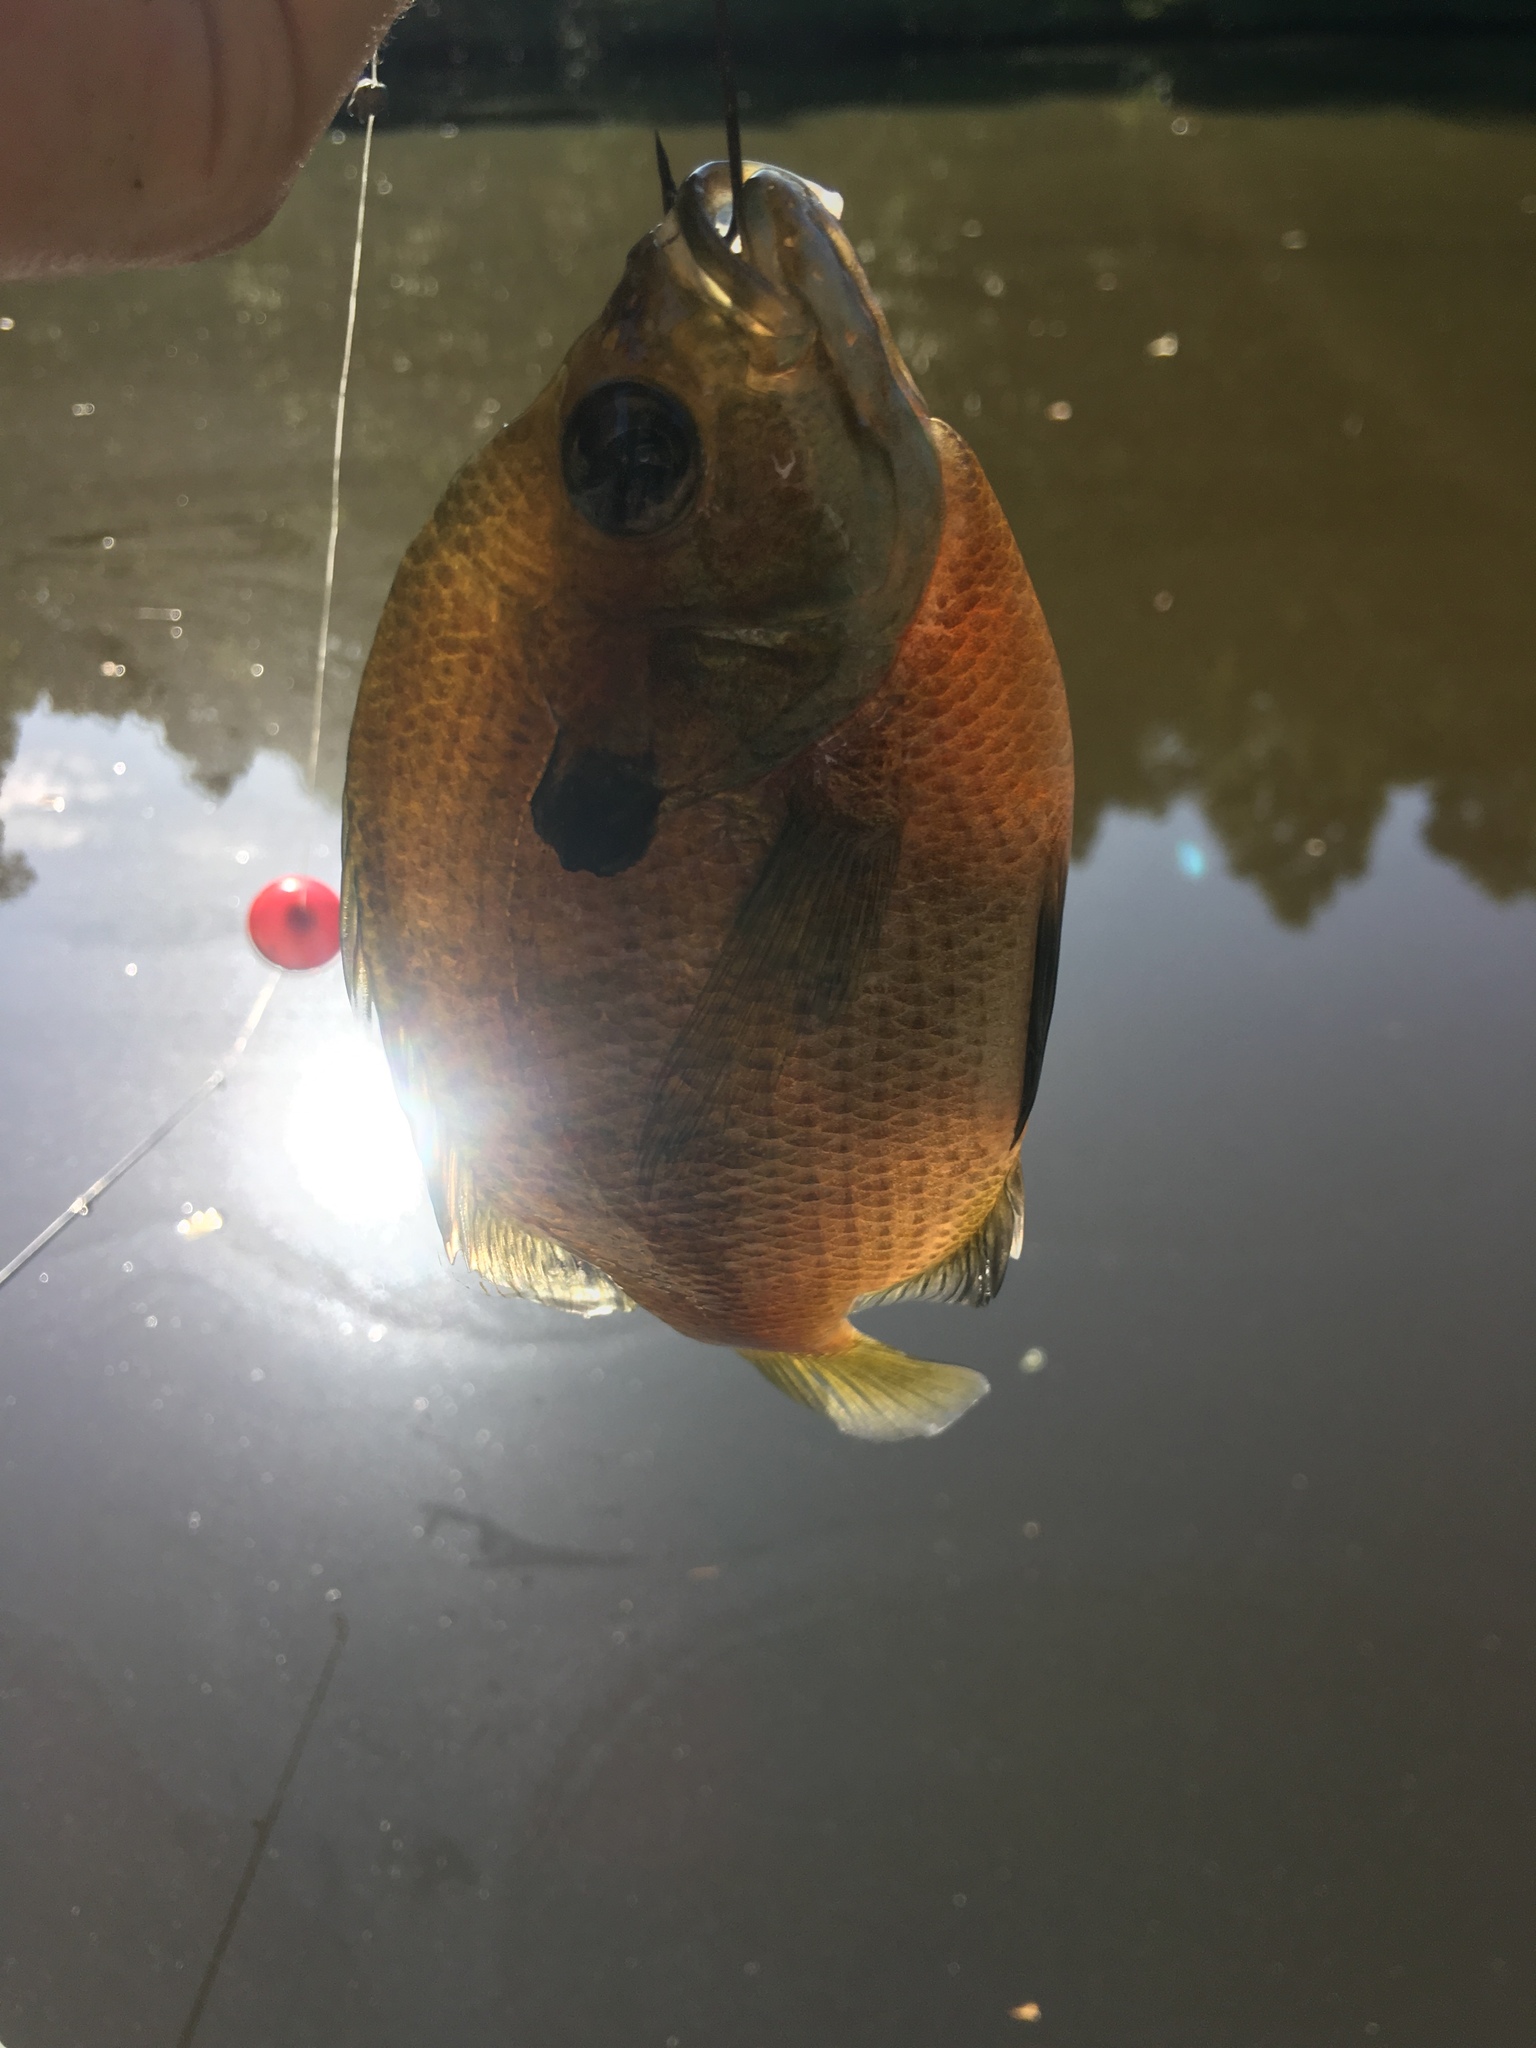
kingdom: Animalia
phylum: Chordata
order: Perciformes
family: Centrarchidae
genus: Lepomis
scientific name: Lepomis macrochirus
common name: Bluegill
